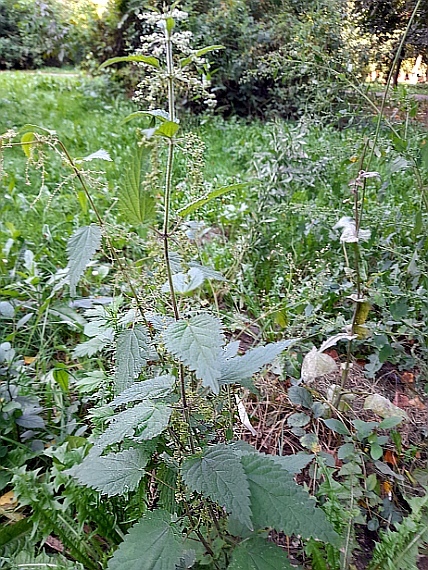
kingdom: Plantae
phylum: Tracheophyta
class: Magnoliopsida
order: Rosales
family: Urticaceae
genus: Urtica
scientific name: Urtica dioica
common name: Common nettle
